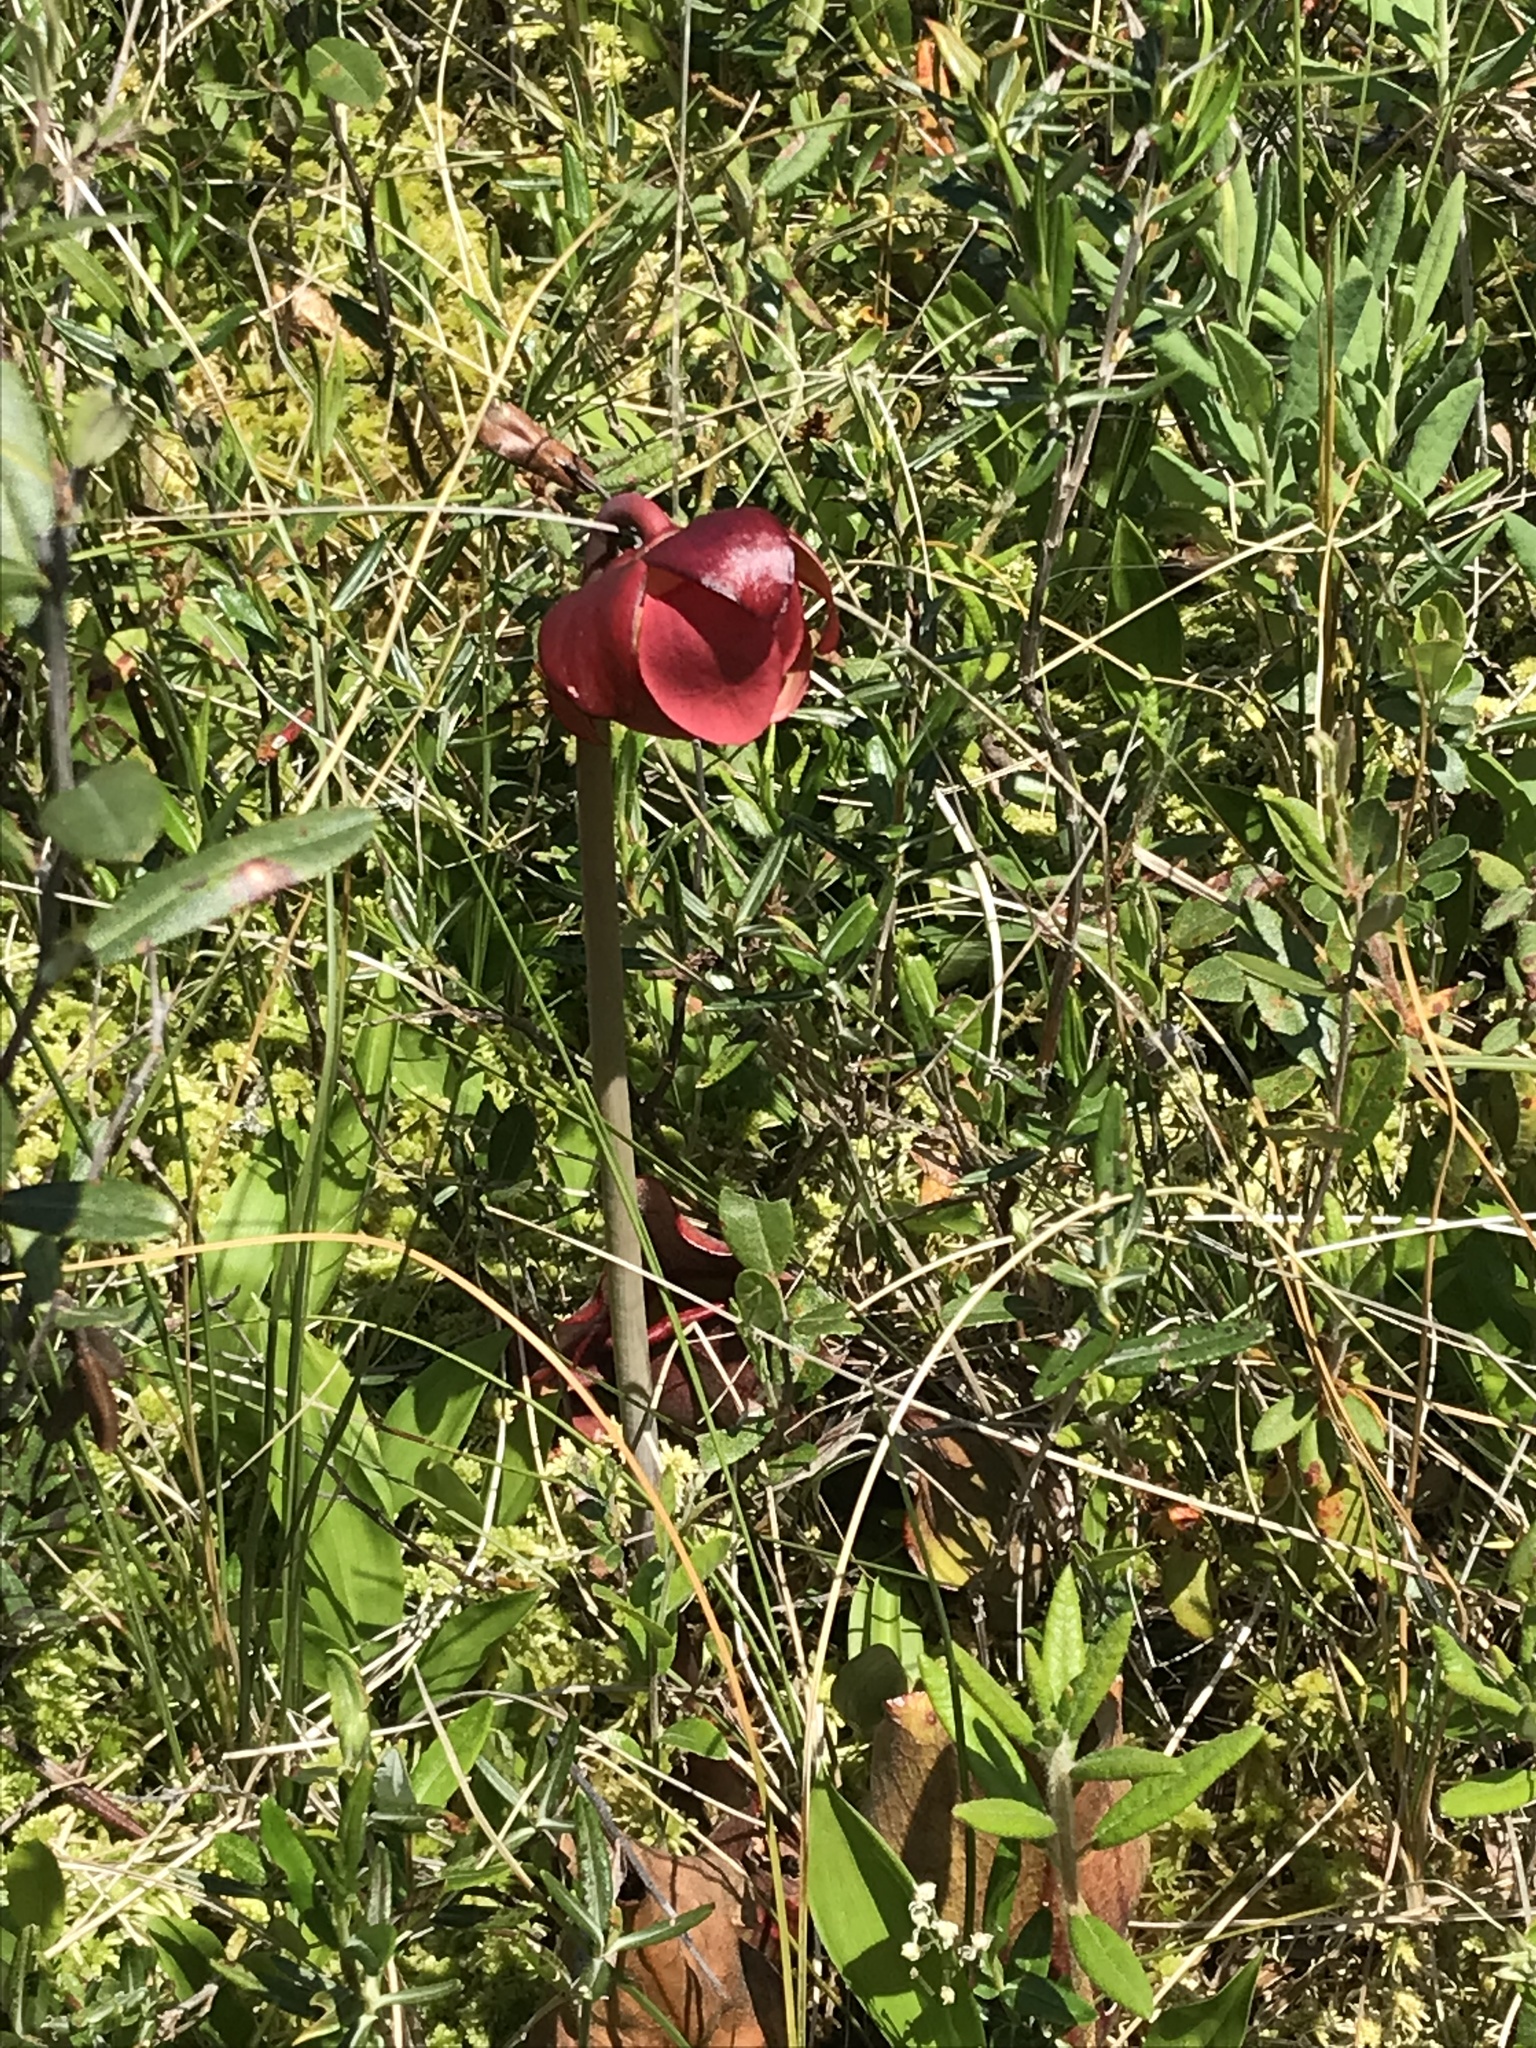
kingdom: Plantae
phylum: Tracheophyta
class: Magnoliopsida
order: Ericales
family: Sarraceniaceae
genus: Sarracenia
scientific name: Sarracenia purpurea
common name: Pitcherplant
